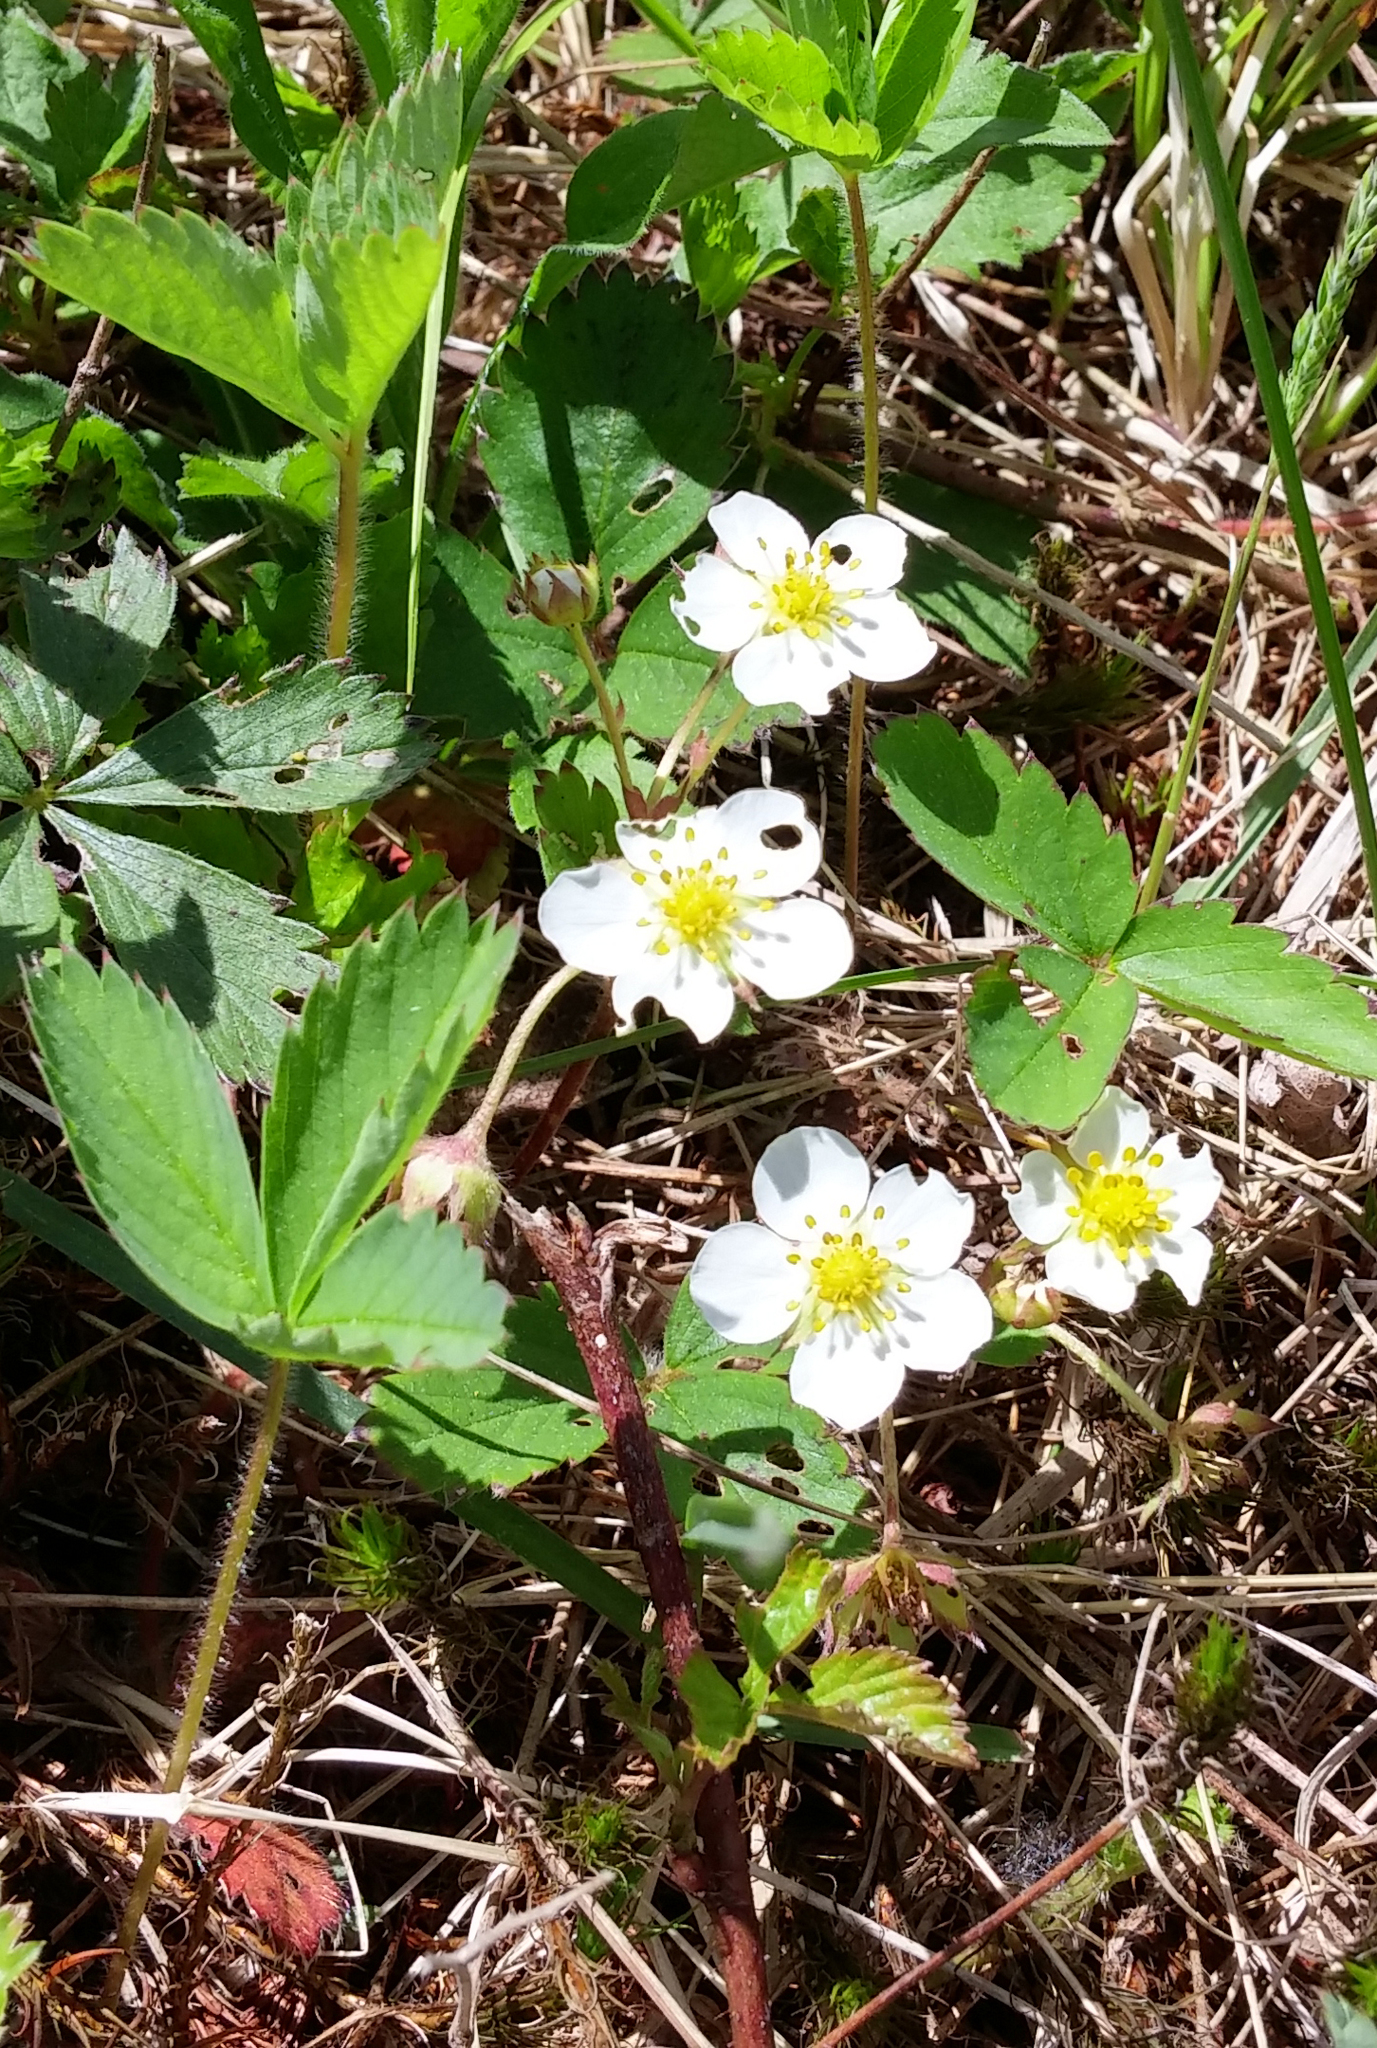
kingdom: Plantae
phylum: Tracheophyta
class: Magnoliopsida
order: Rosales
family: Rosaceae
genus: Fragaria
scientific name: Fragaria virginiana
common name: Thickleaved wild strawberry
